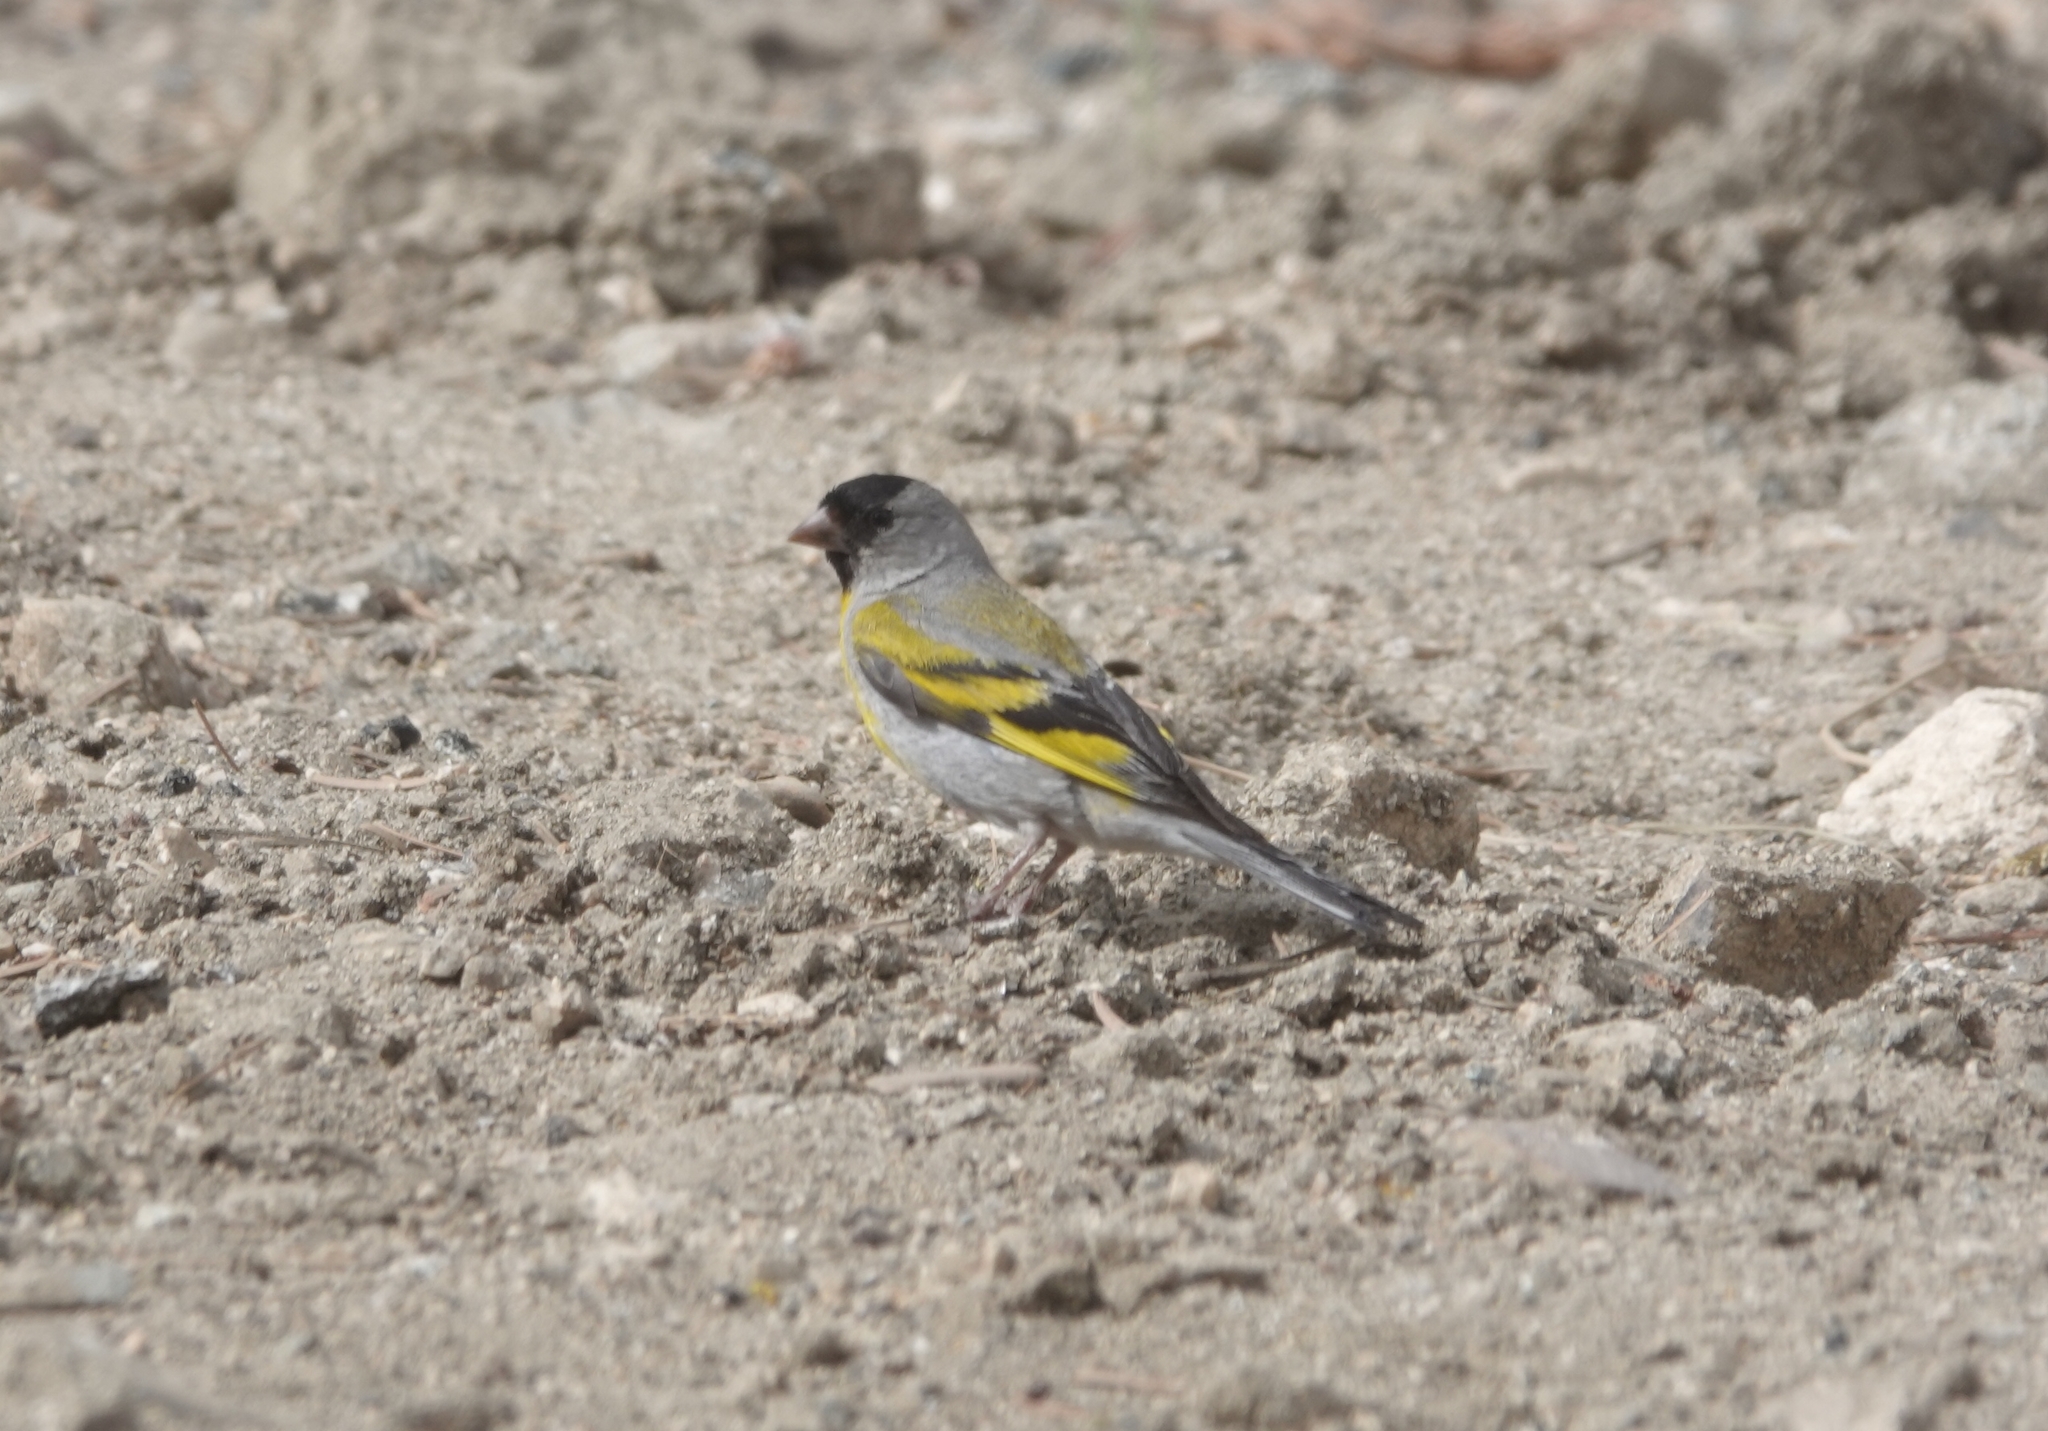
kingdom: Animalia
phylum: Chordata
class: Aves
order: Passeriformes
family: Fringillidae
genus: Spinus
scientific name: Spinus lawrencei
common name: Lawrence's goldfinch
